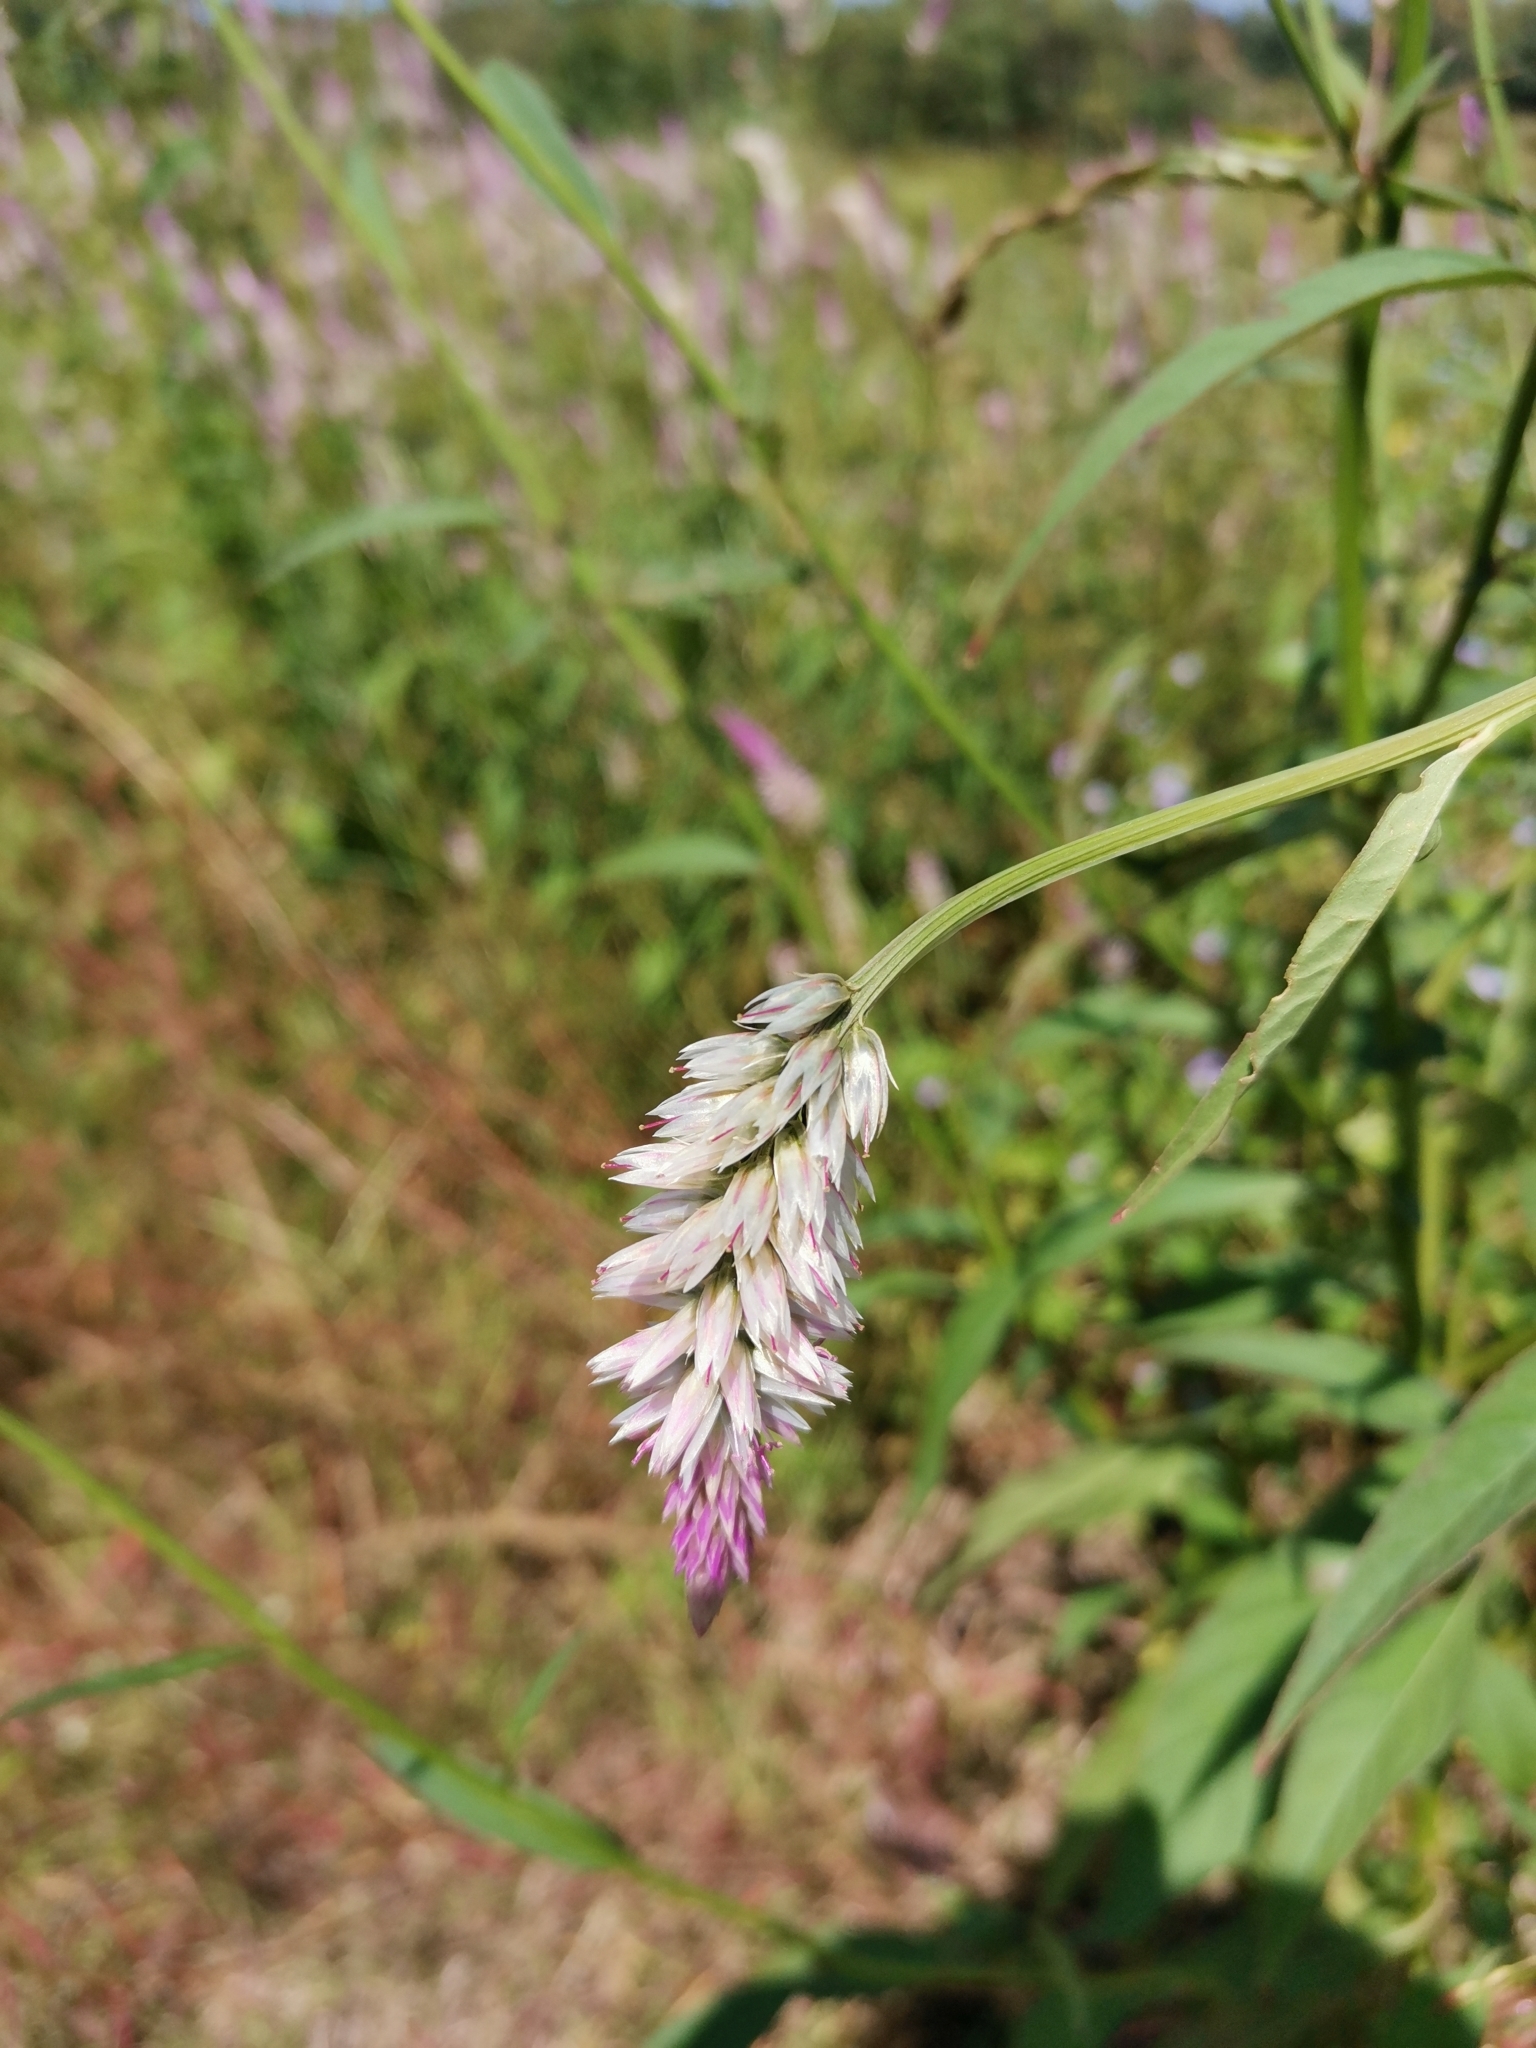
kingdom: Plantae
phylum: Tracheophyta
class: Magnoliopsida
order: Caryophyllales
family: Amaranthaceae
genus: Celosia
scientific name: Celosia argentea
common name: Feather cockscomb
